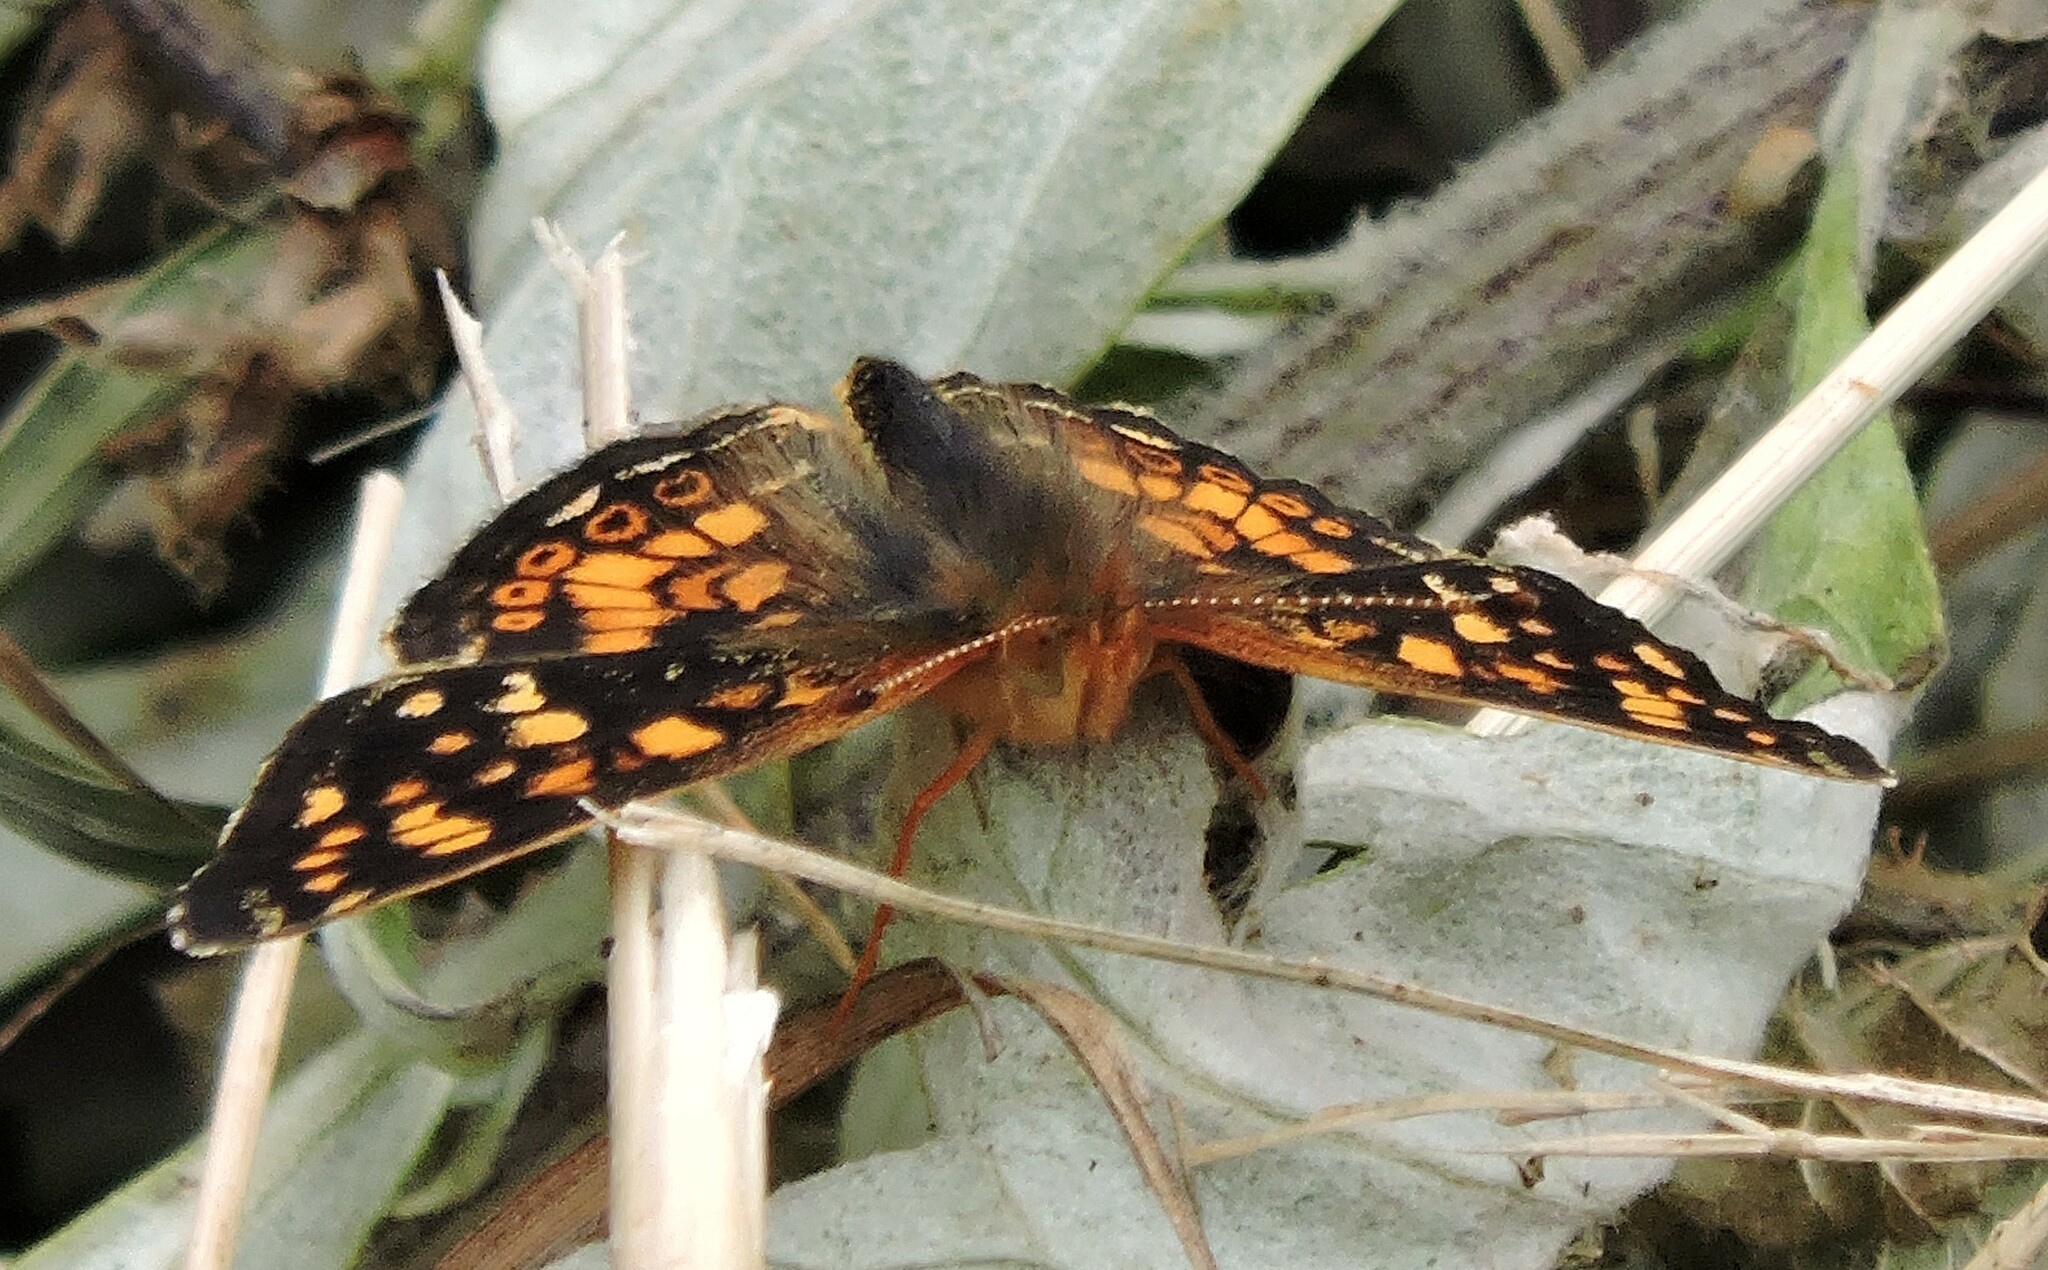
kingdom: Animalia
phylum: Arthropoda
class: Insecta
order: Lepidoptera
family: Nymphalidae
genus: Phyciodes
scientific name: Phyciodes tharos
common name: Pearl crescent
